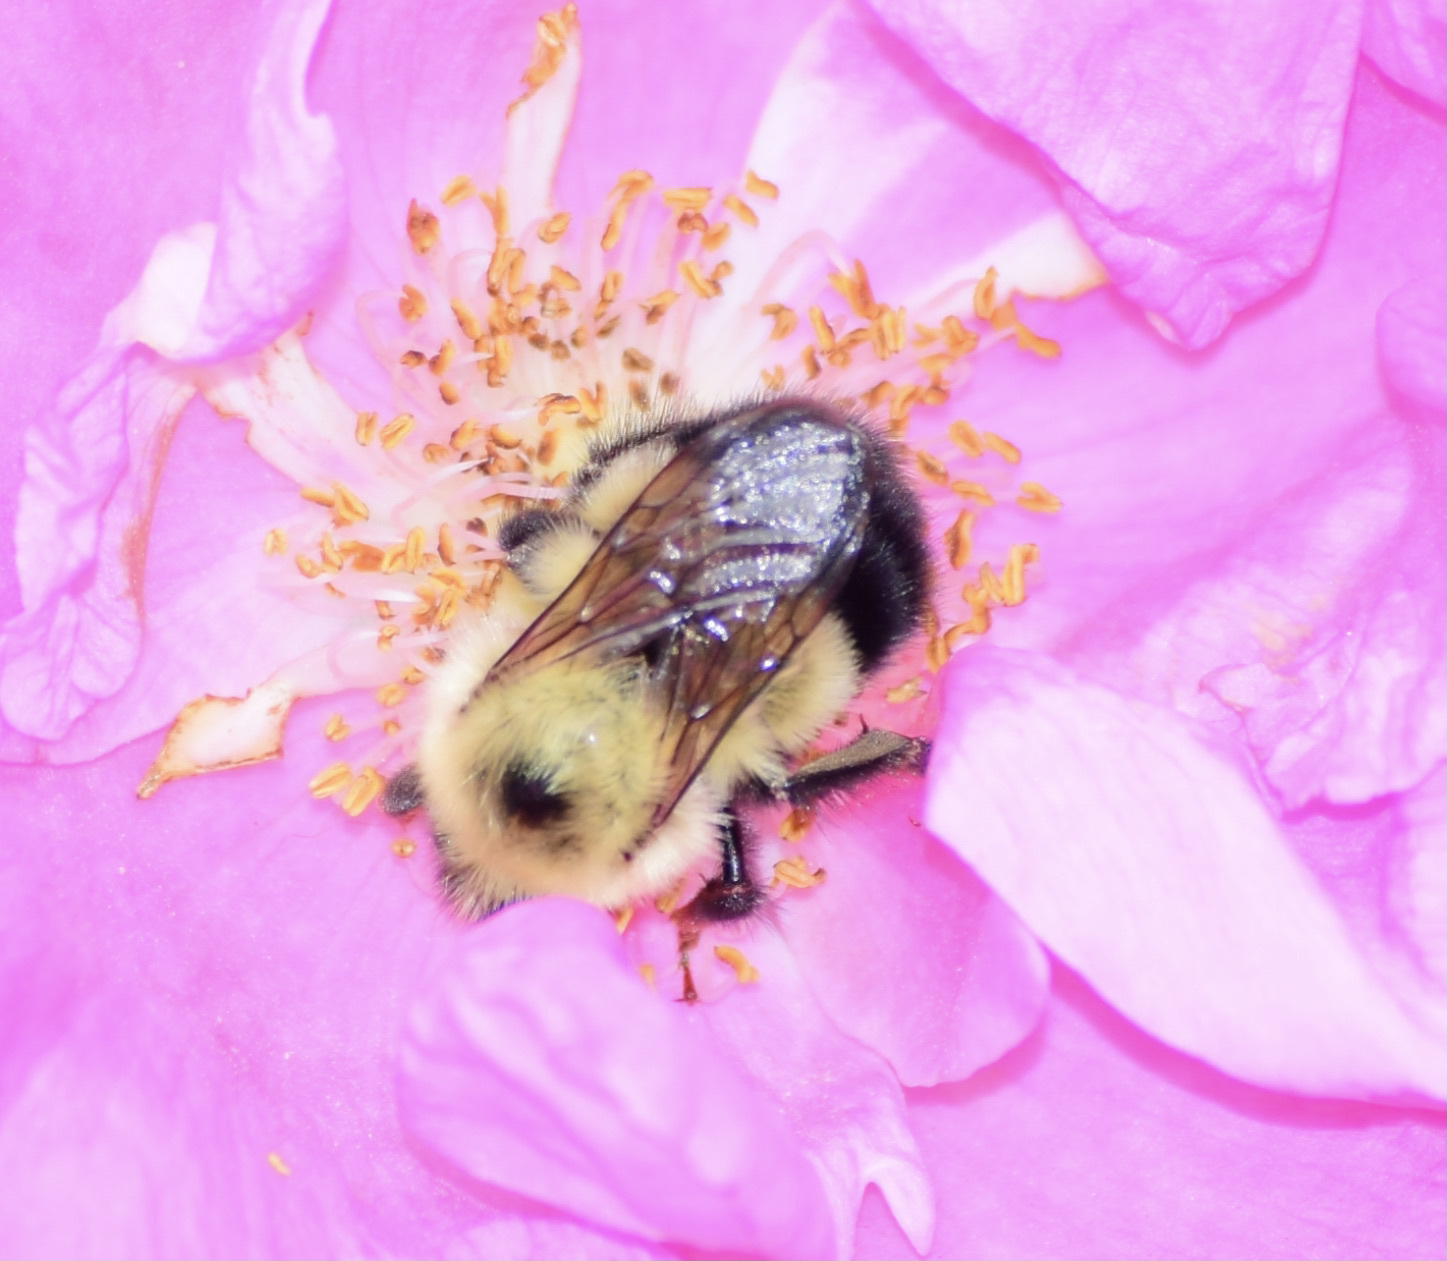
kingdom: Animalia
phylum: Arthropoda
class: Insecta
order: Hymenoptera
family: Apidae
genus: Pyrobombus
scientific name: Pyrobombus
